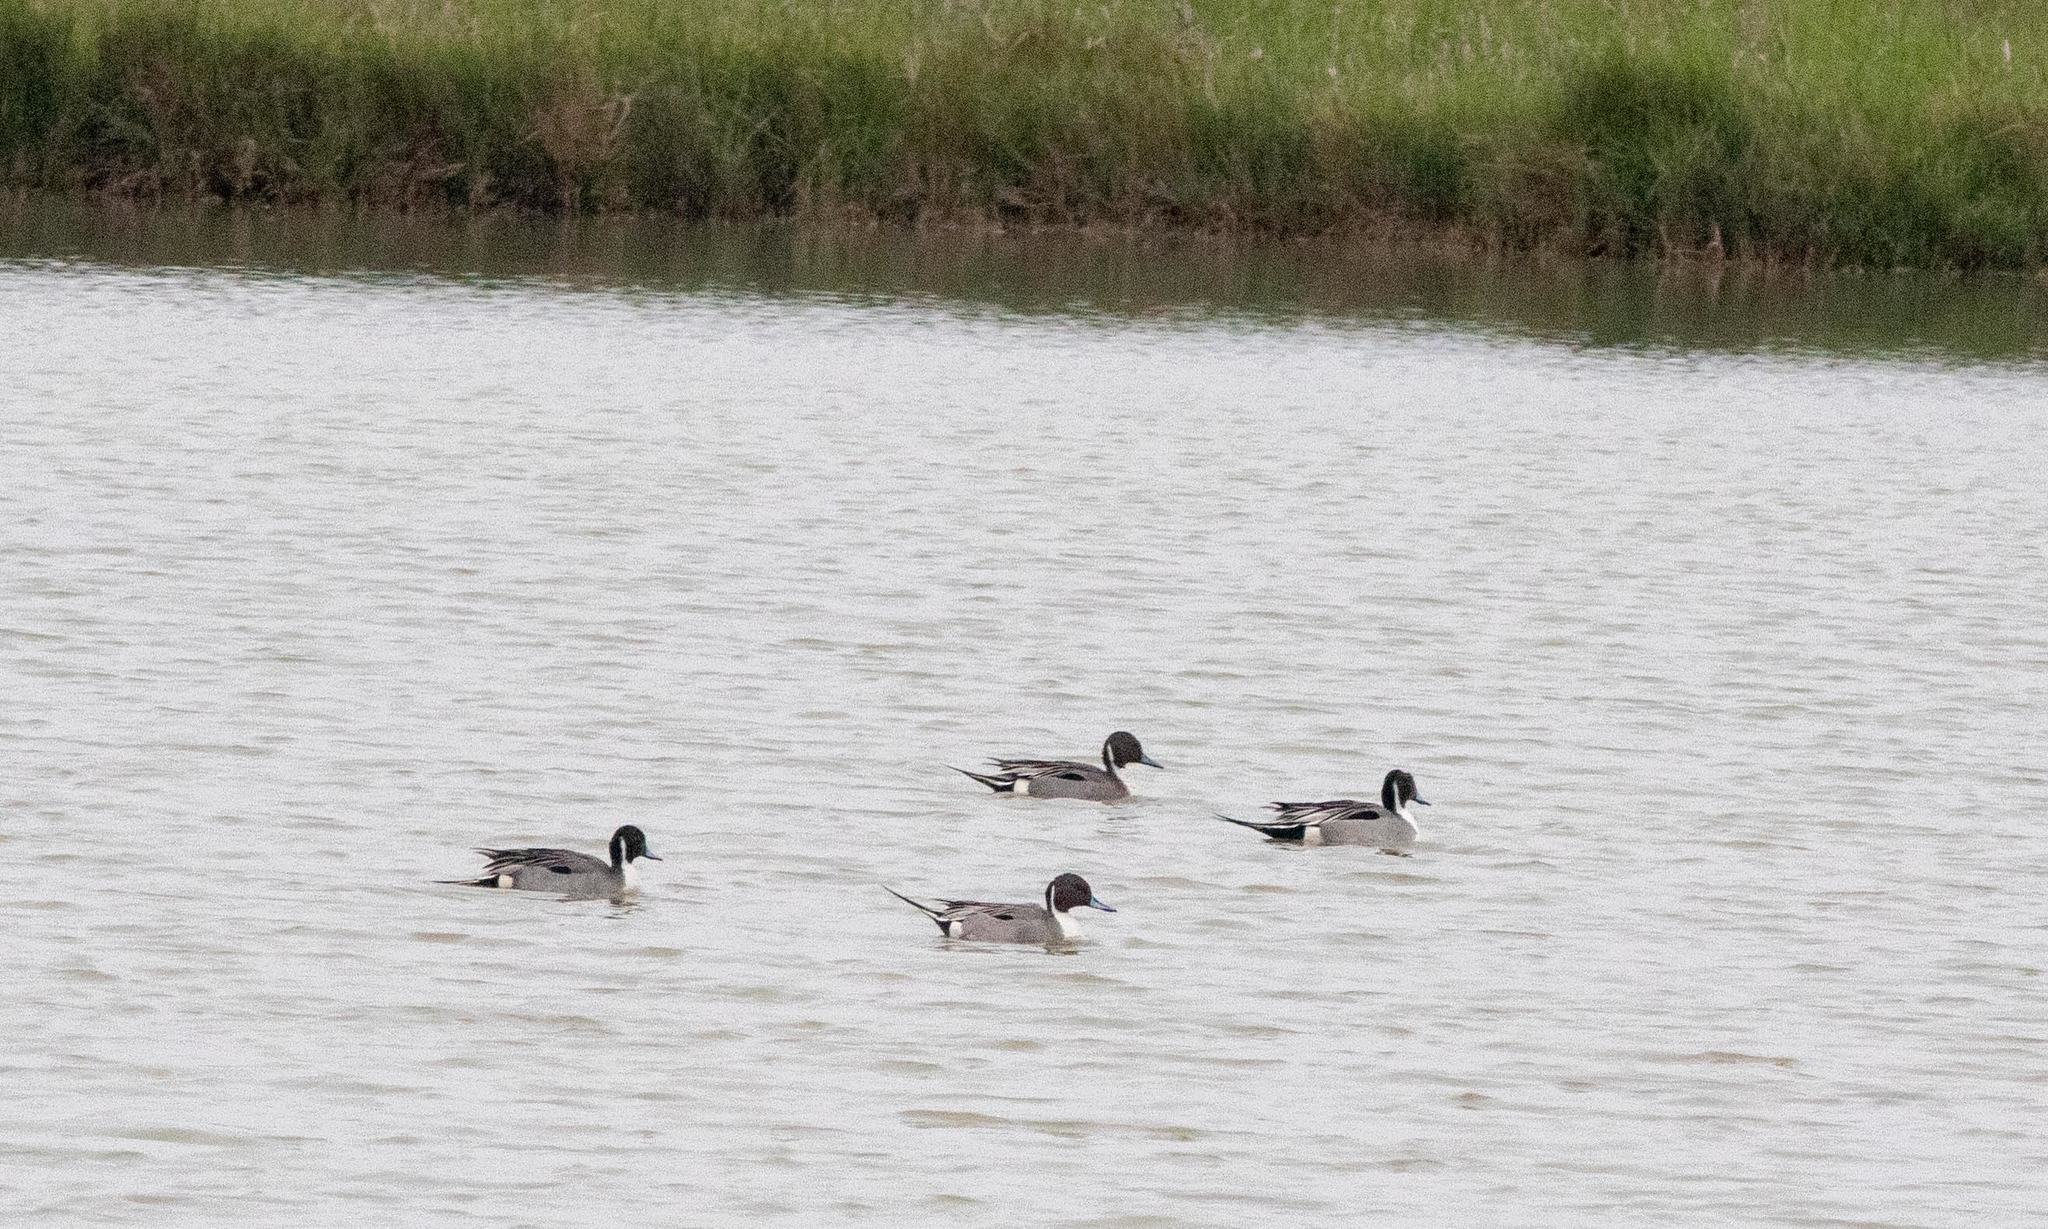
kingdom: Animalia
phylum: Chordata
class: Aves
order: Anseriformes
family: Anatidae
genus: Anas
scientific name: Anas acuta
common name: Northern pintail
